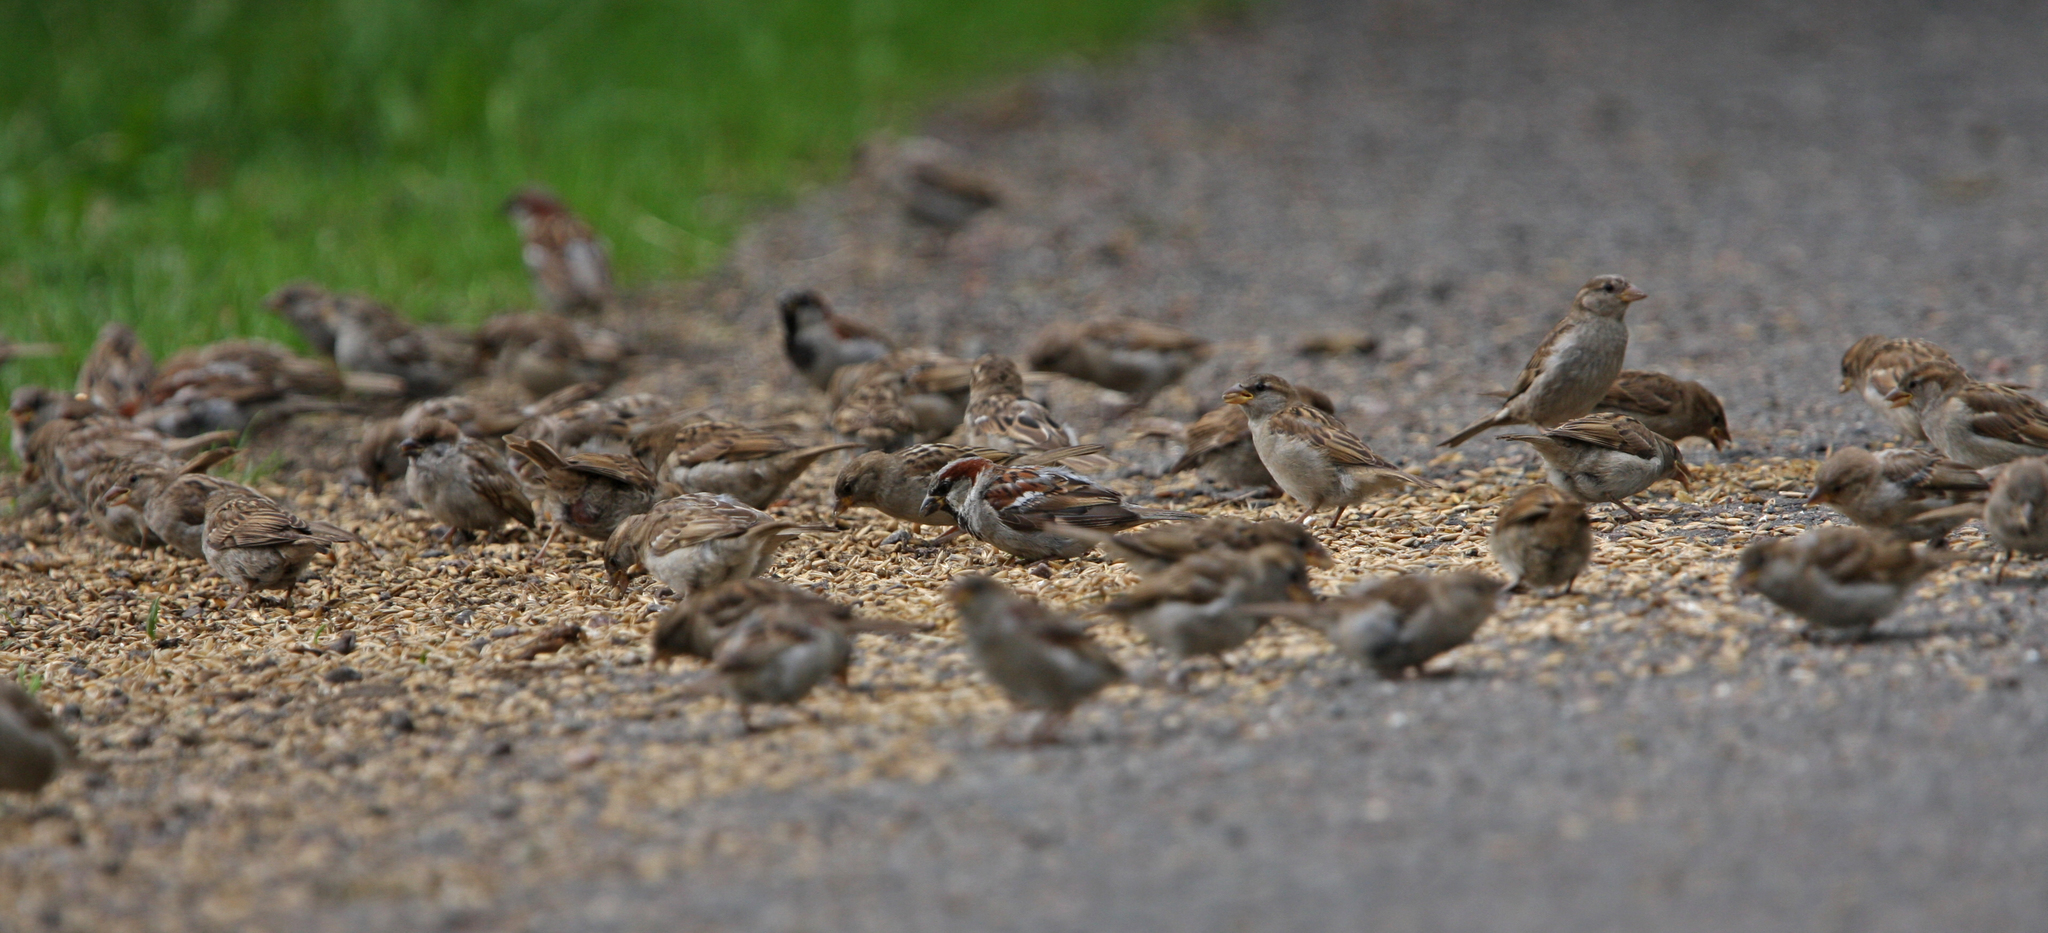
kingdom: Animalia
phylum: Chordata
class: Aves
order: Passeriformes
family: Passeridae
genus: Passer
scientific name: Passer domesticus
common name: House sparrow
